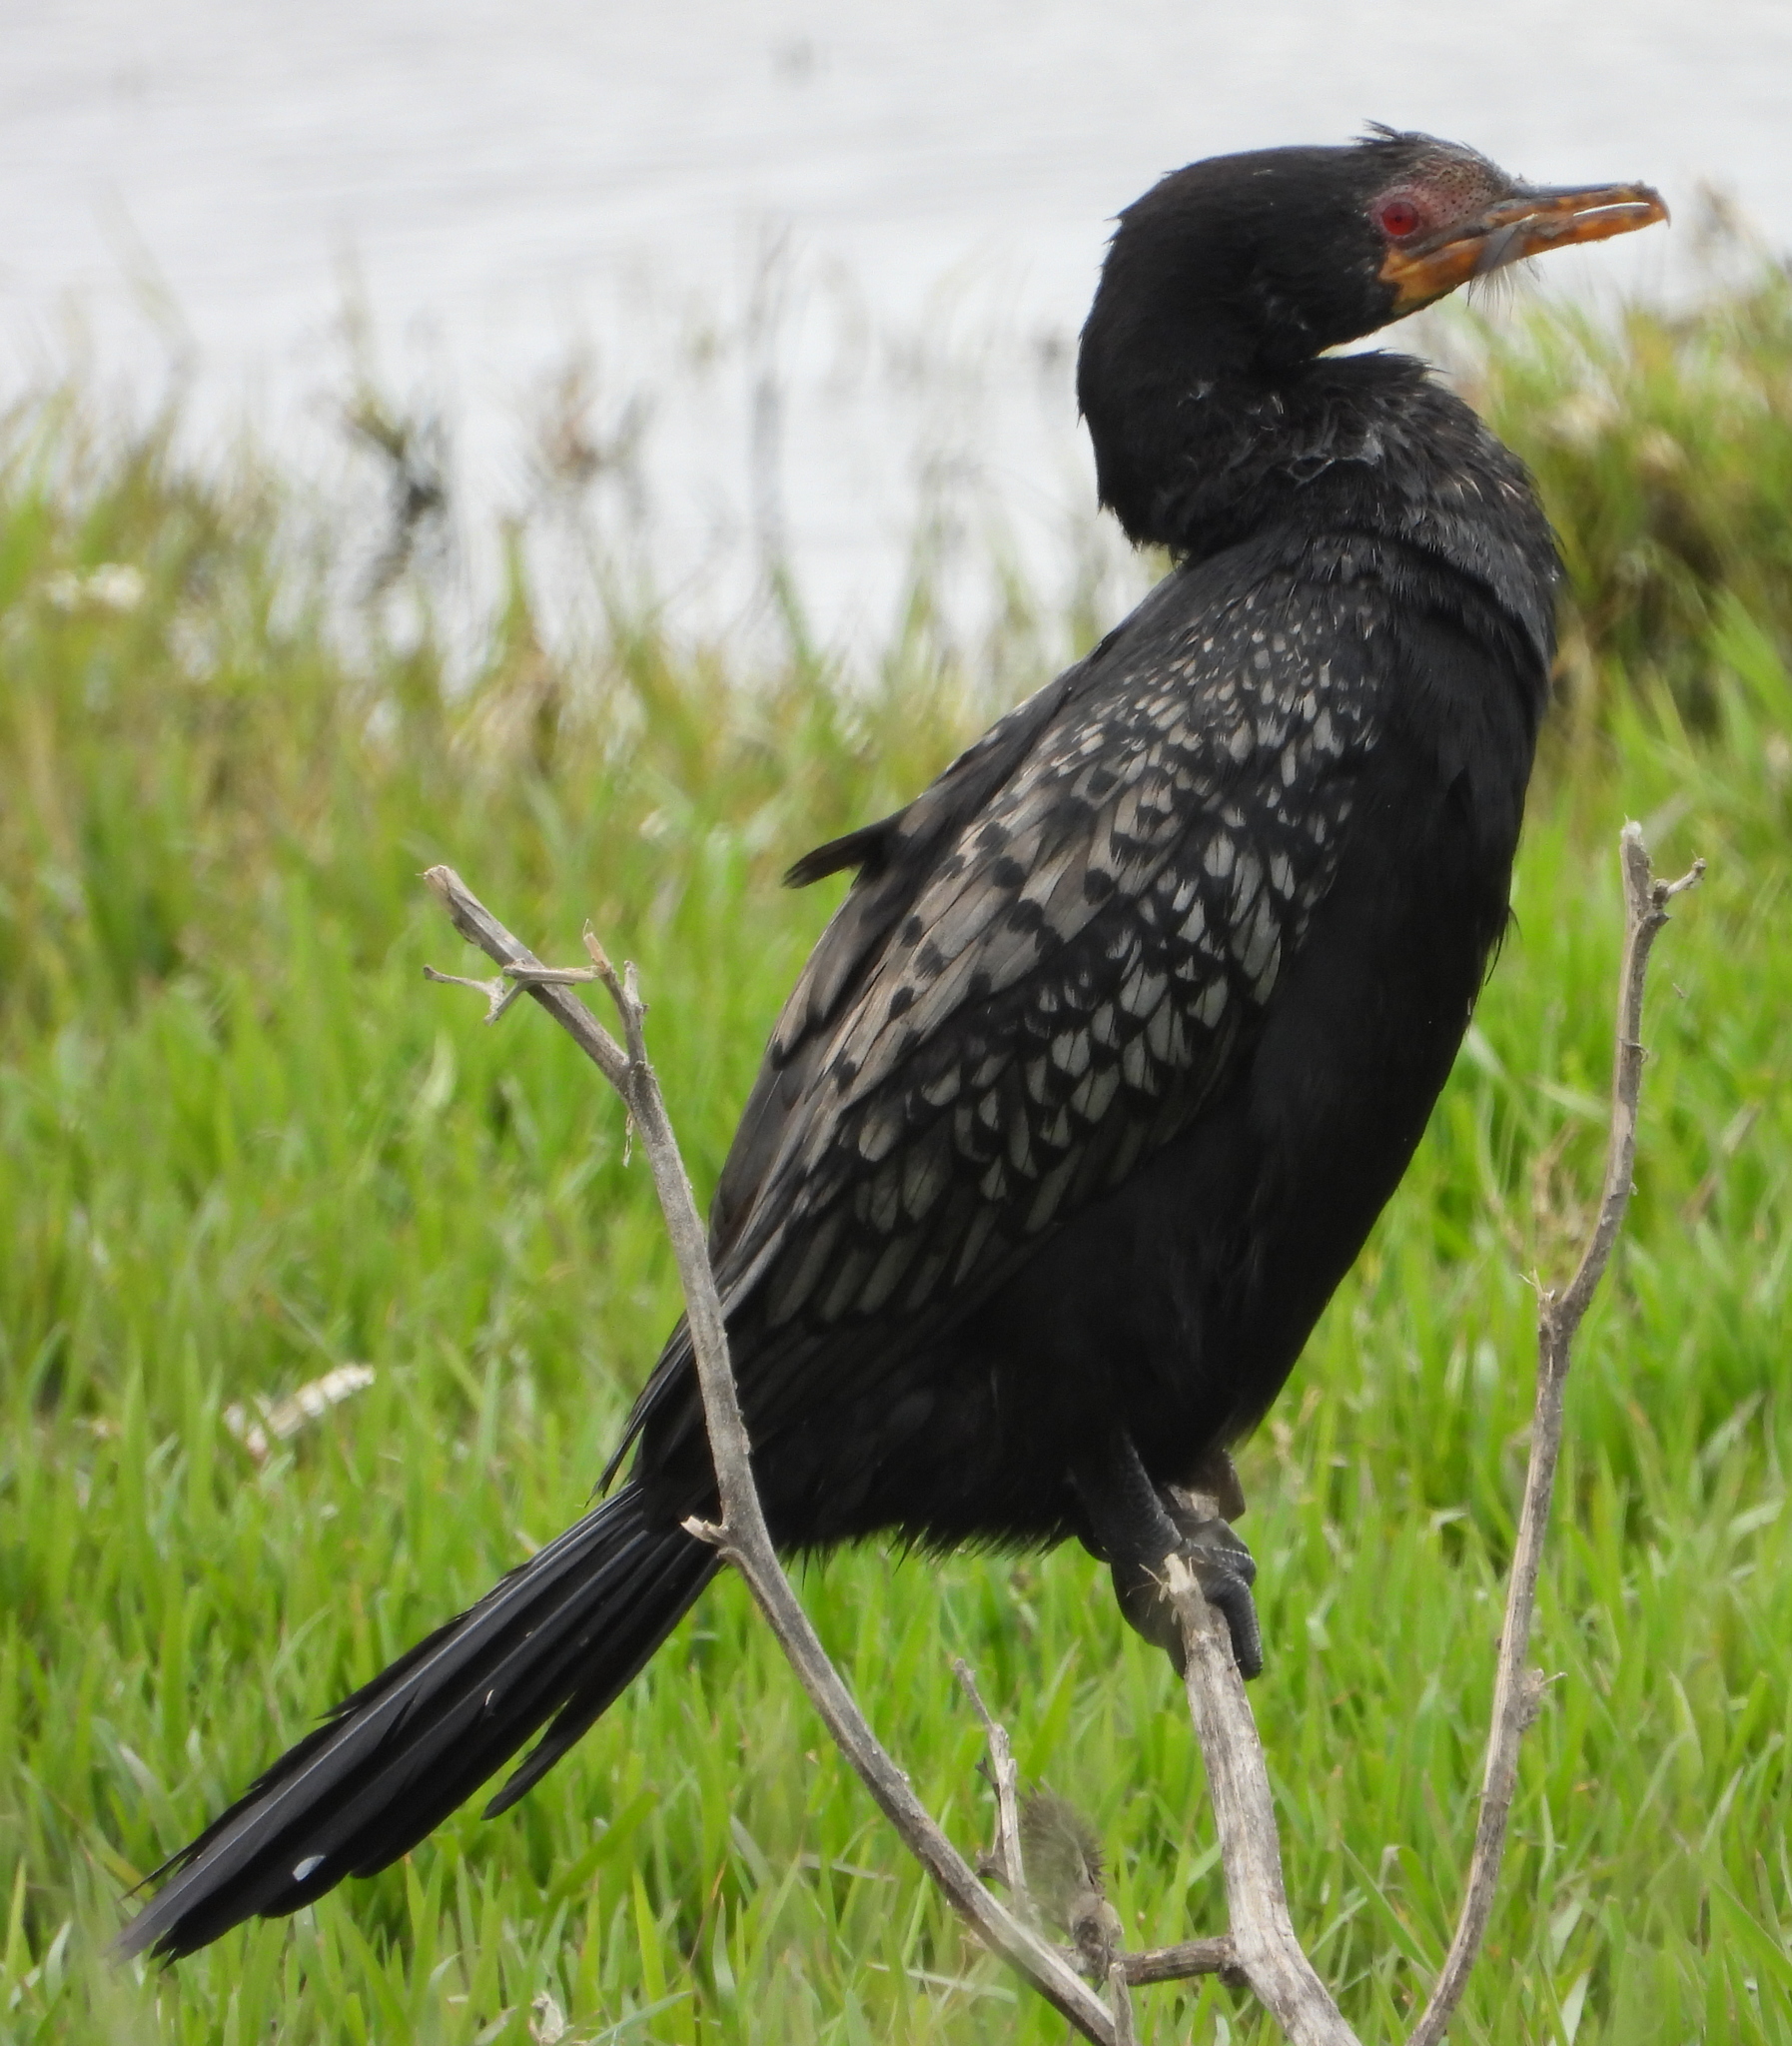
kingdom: Animalia
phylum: Chordata
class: Aves
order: Suliformes
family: Phalacrocoracidae
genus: Microcarbo
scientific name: Microcarbo africanus
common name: Long-tailed cormorant
